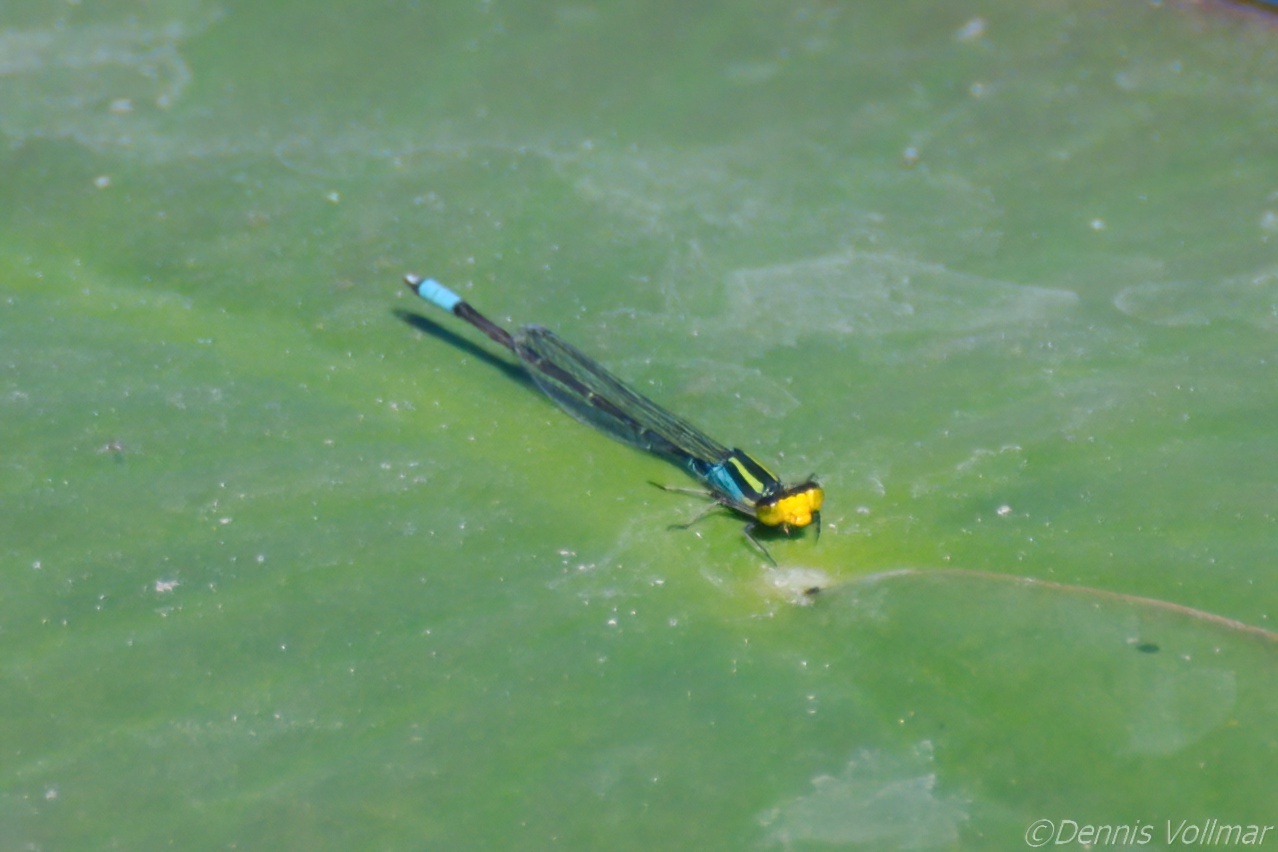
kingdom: Animalia
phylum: Arthropoda
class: Insecta
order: Odonata
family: Coenagrionidae
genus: Neoerythromma
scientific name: Neoerythromma cultellatum
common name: Caribbean yellowface
